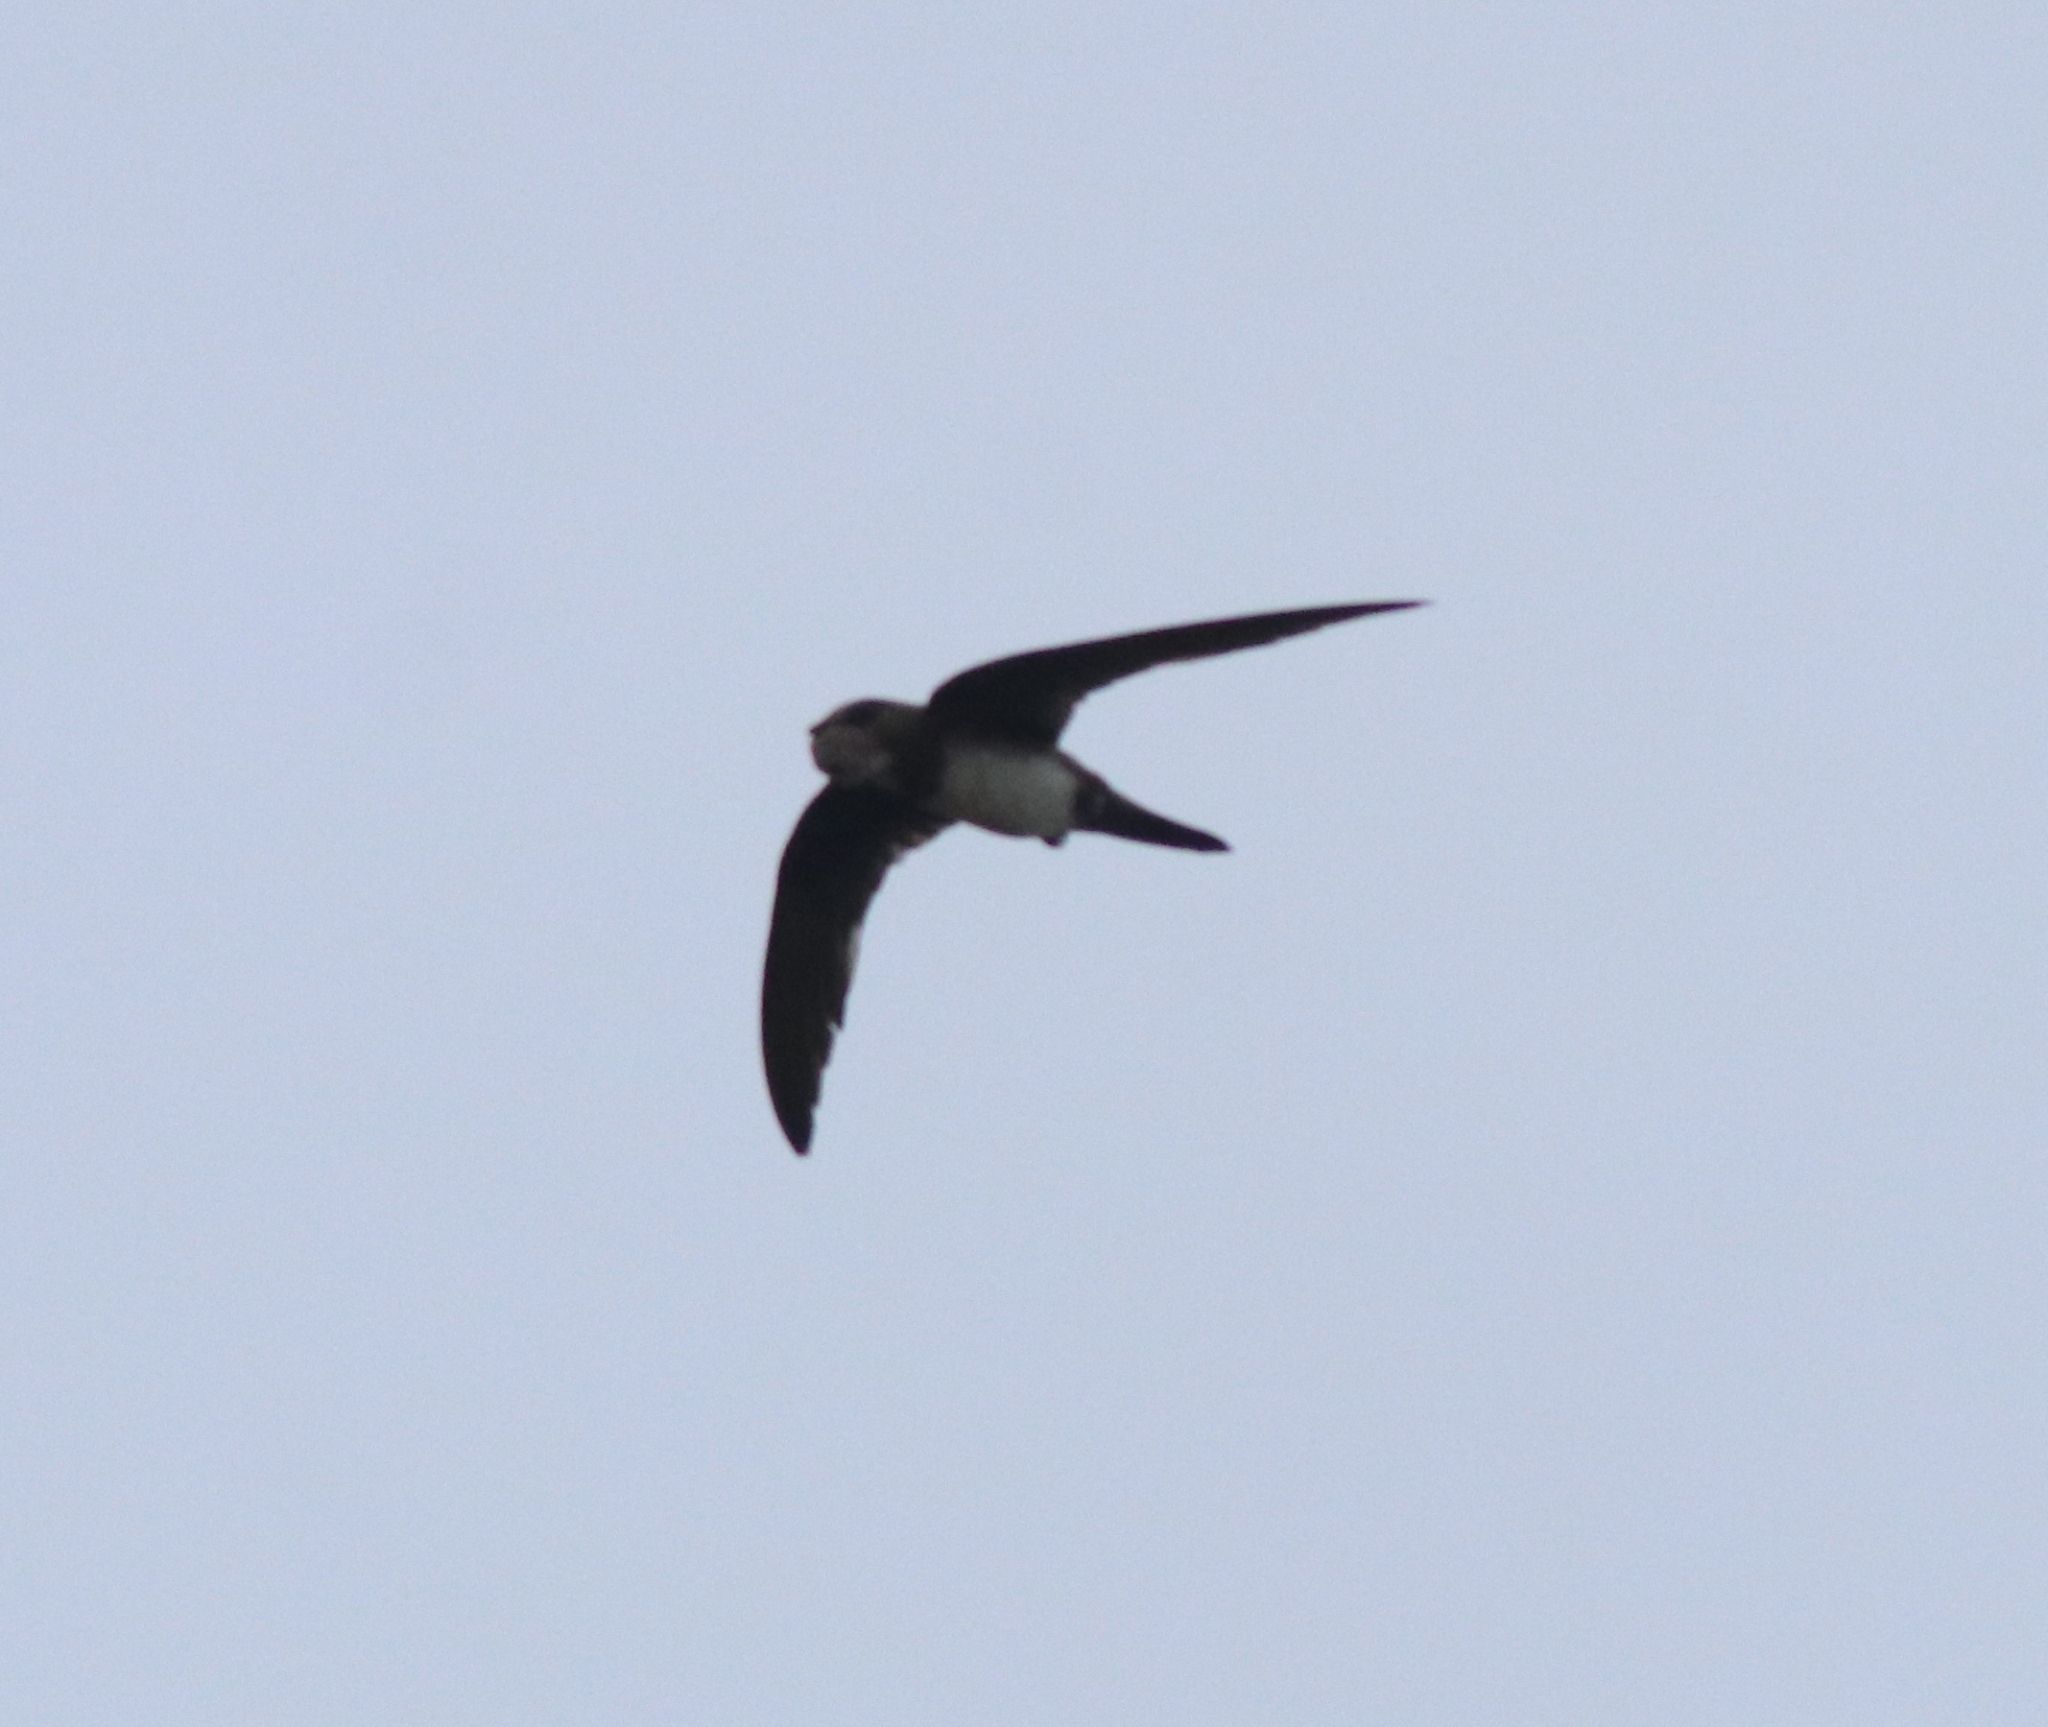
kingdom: Animalia
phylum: Chordata
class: Aves
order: Apodiformes
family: Apodidae
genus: Tachymarptis
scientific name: Tachymarptis melba
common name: Alpine swift
